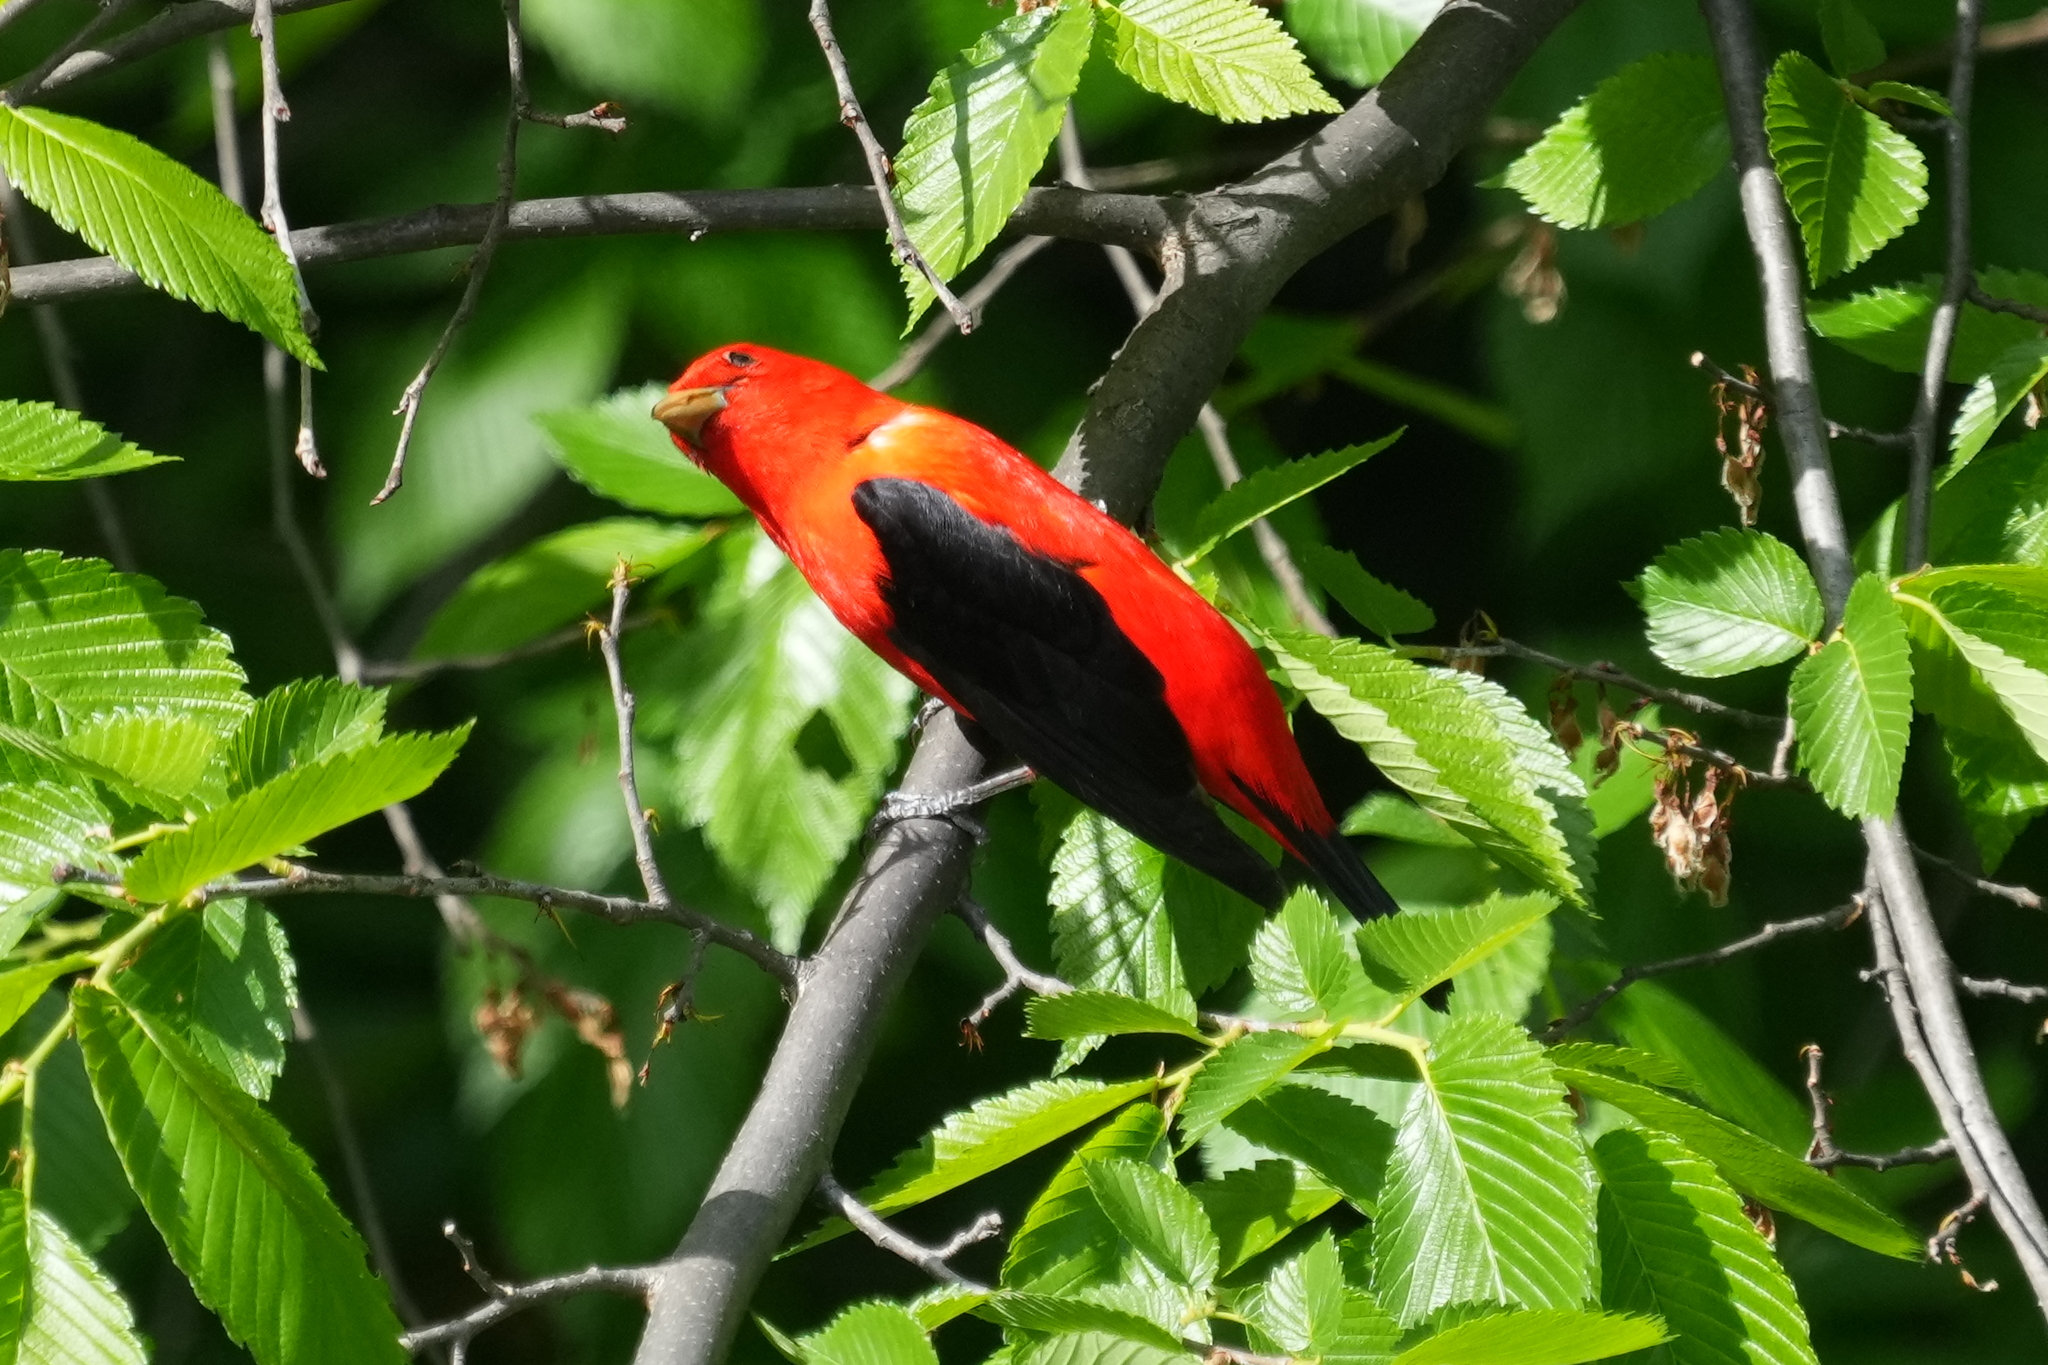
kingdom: Animalia
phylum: Chordata
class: Aves
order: Passeriformes
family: Cardinalidae
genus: Piranga
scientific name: Piranga olivacea
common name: Scarlet tanager
